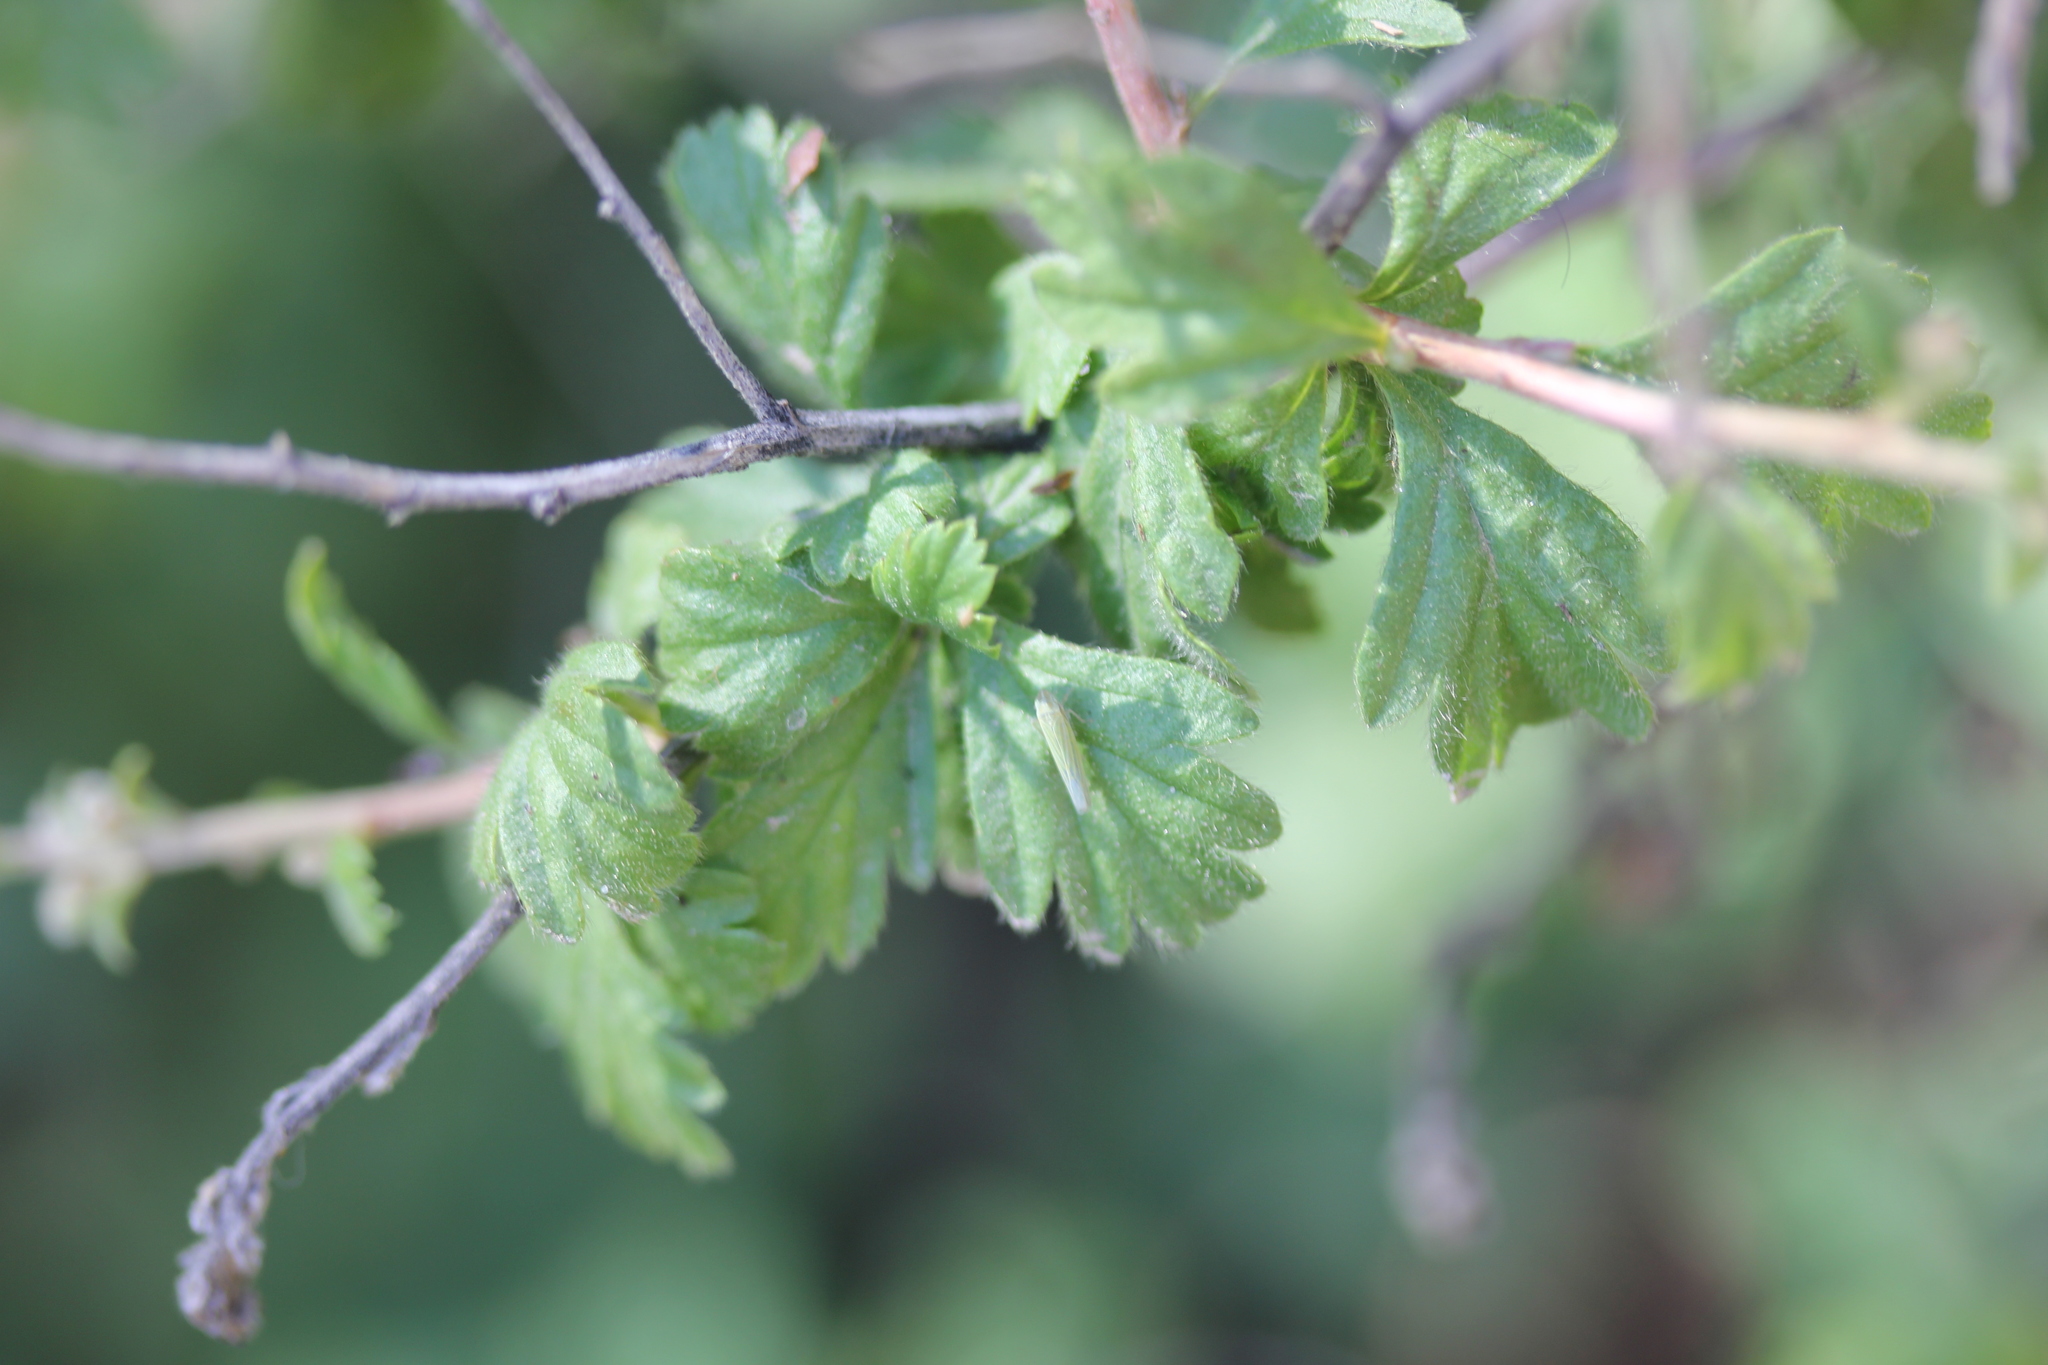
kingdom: Plantae
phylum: Tracheophyta
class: Magnoliopsida
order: Saxifragales
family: Grossulariaceae
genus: Ribes
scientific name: Ribes cereum
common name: Wax currant
